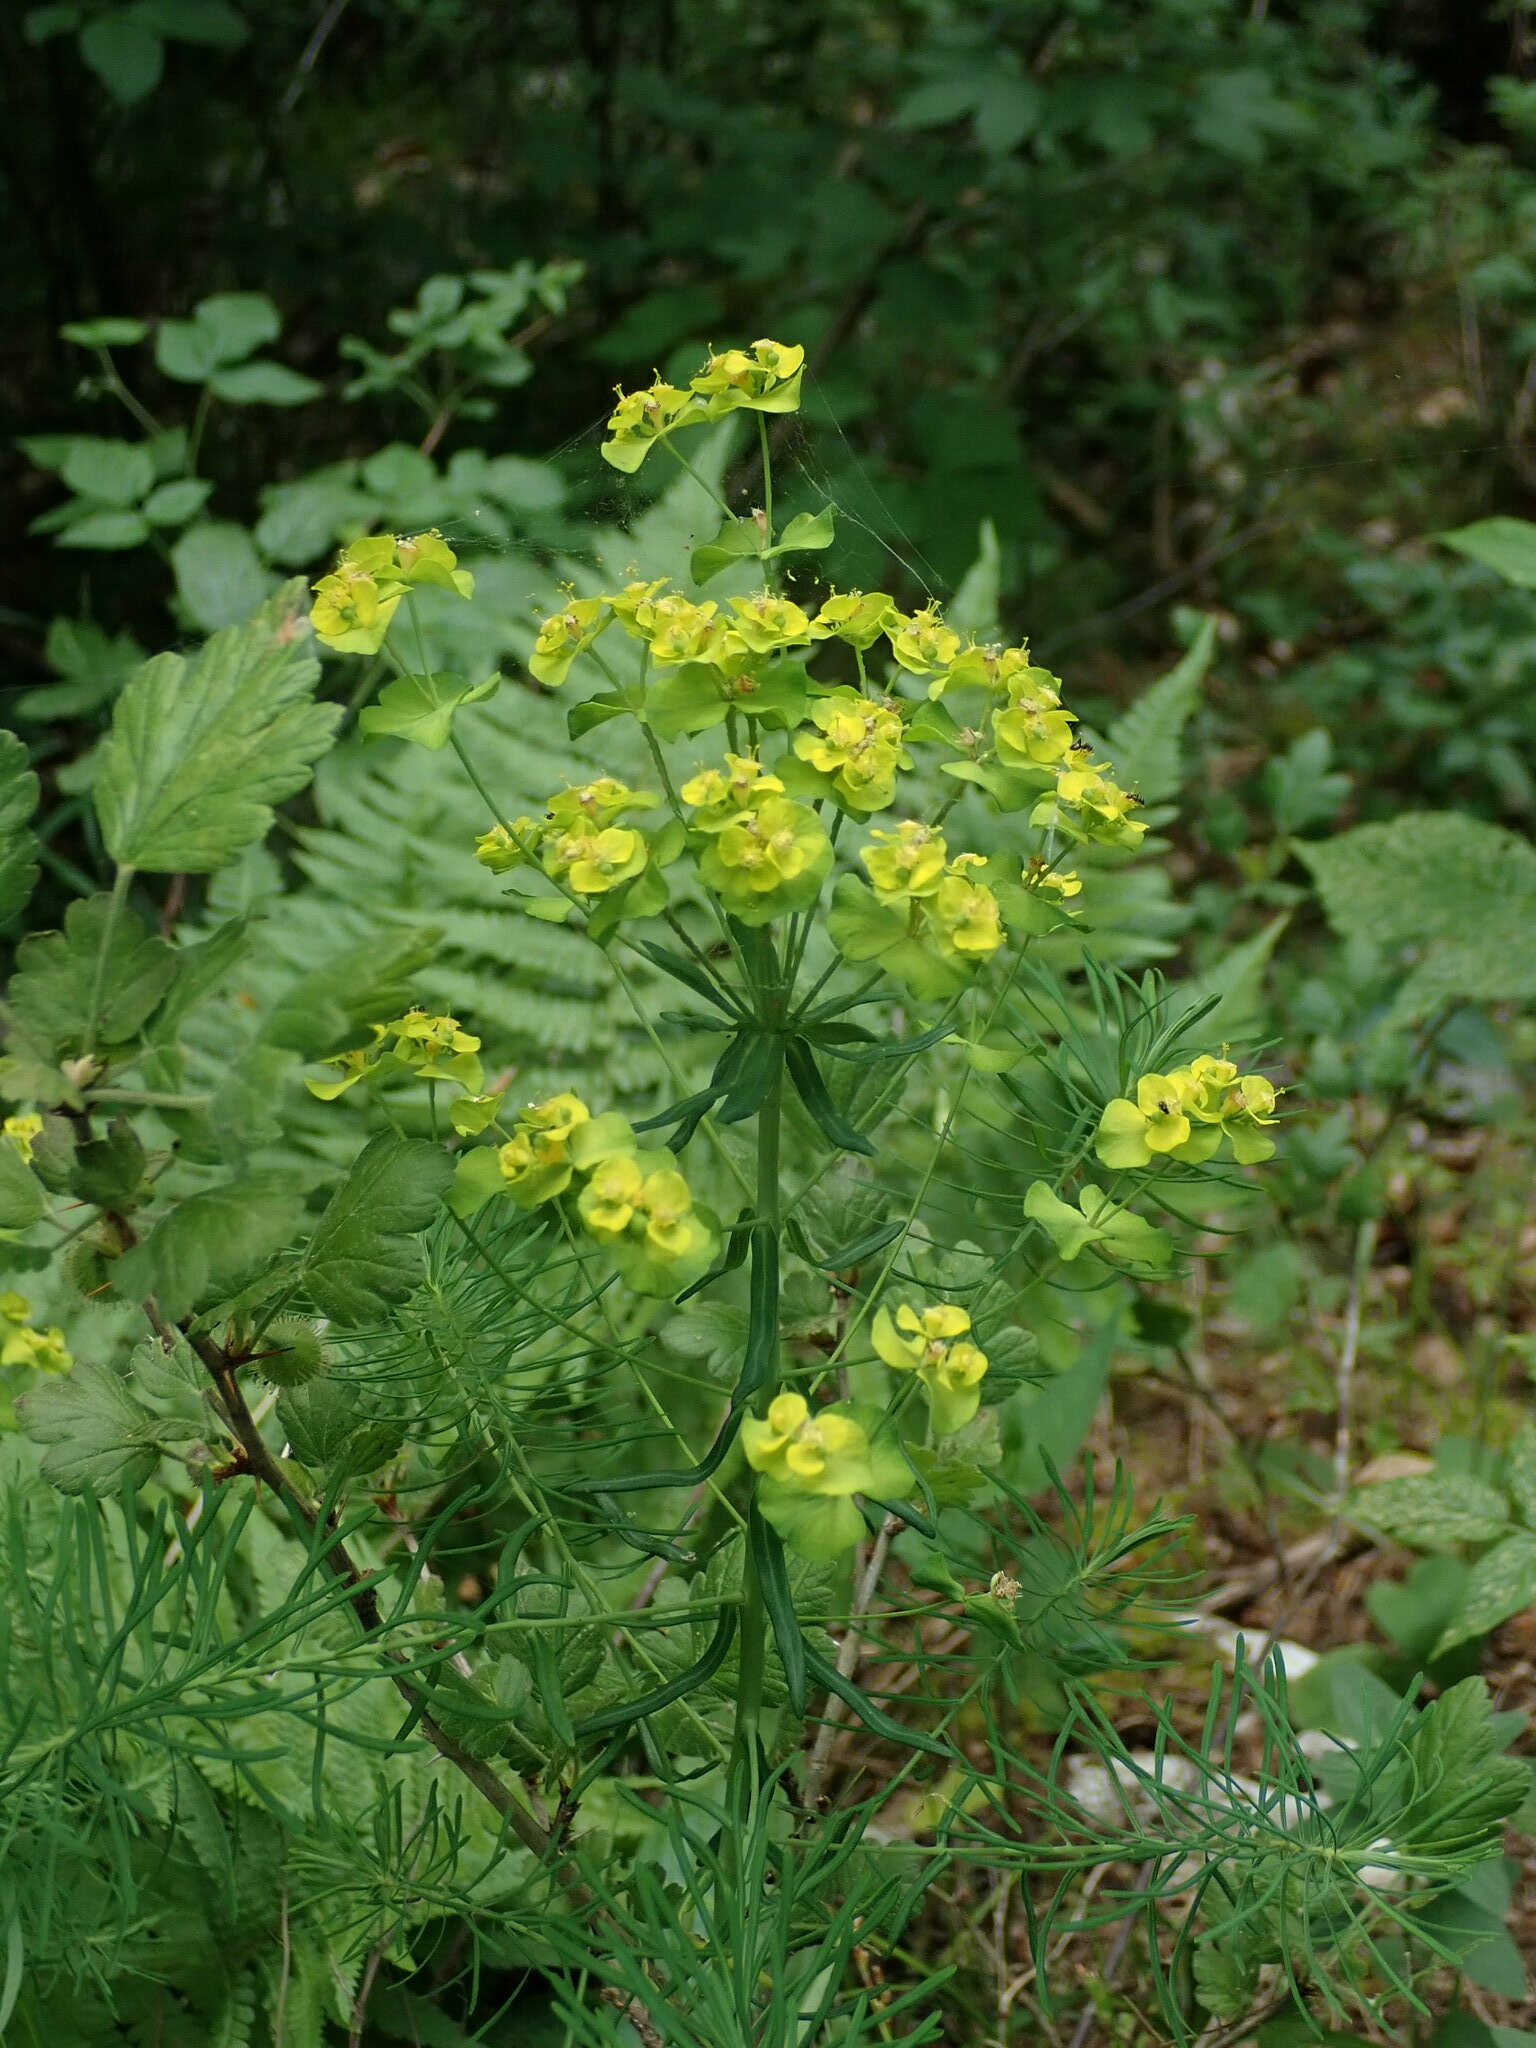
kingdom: Plantae
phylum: Tracheophyta
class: Magnoliopsida
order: Malpighiales
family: Euphorbiaceae
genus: Euphorbia
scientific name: Euphorbia cyparissias
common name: Cypress spurge
